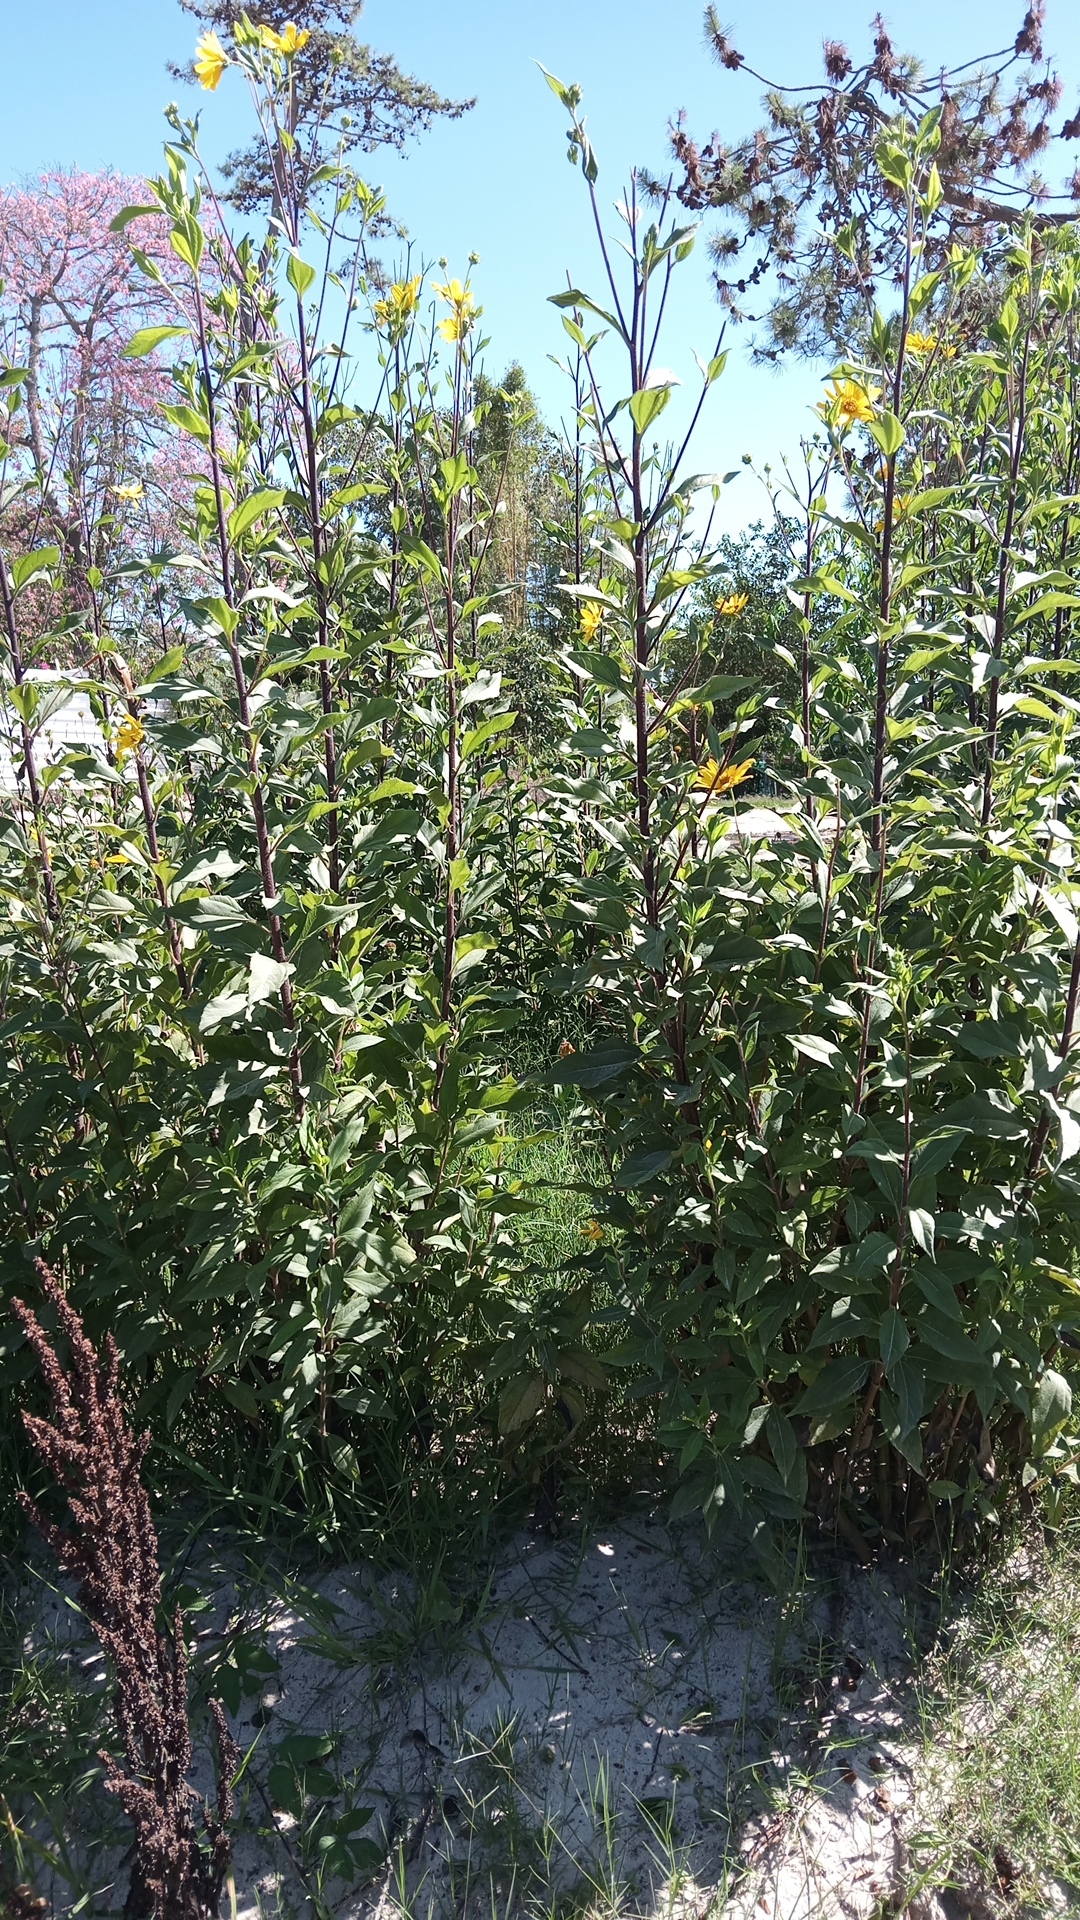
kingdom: Plantae
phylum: Tracheophyta
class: Magnoliopsida
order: Asterales
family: Asteraceae
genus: Helianthus
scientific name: Helianthus tuberosus
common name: Jerusalem artichoke
